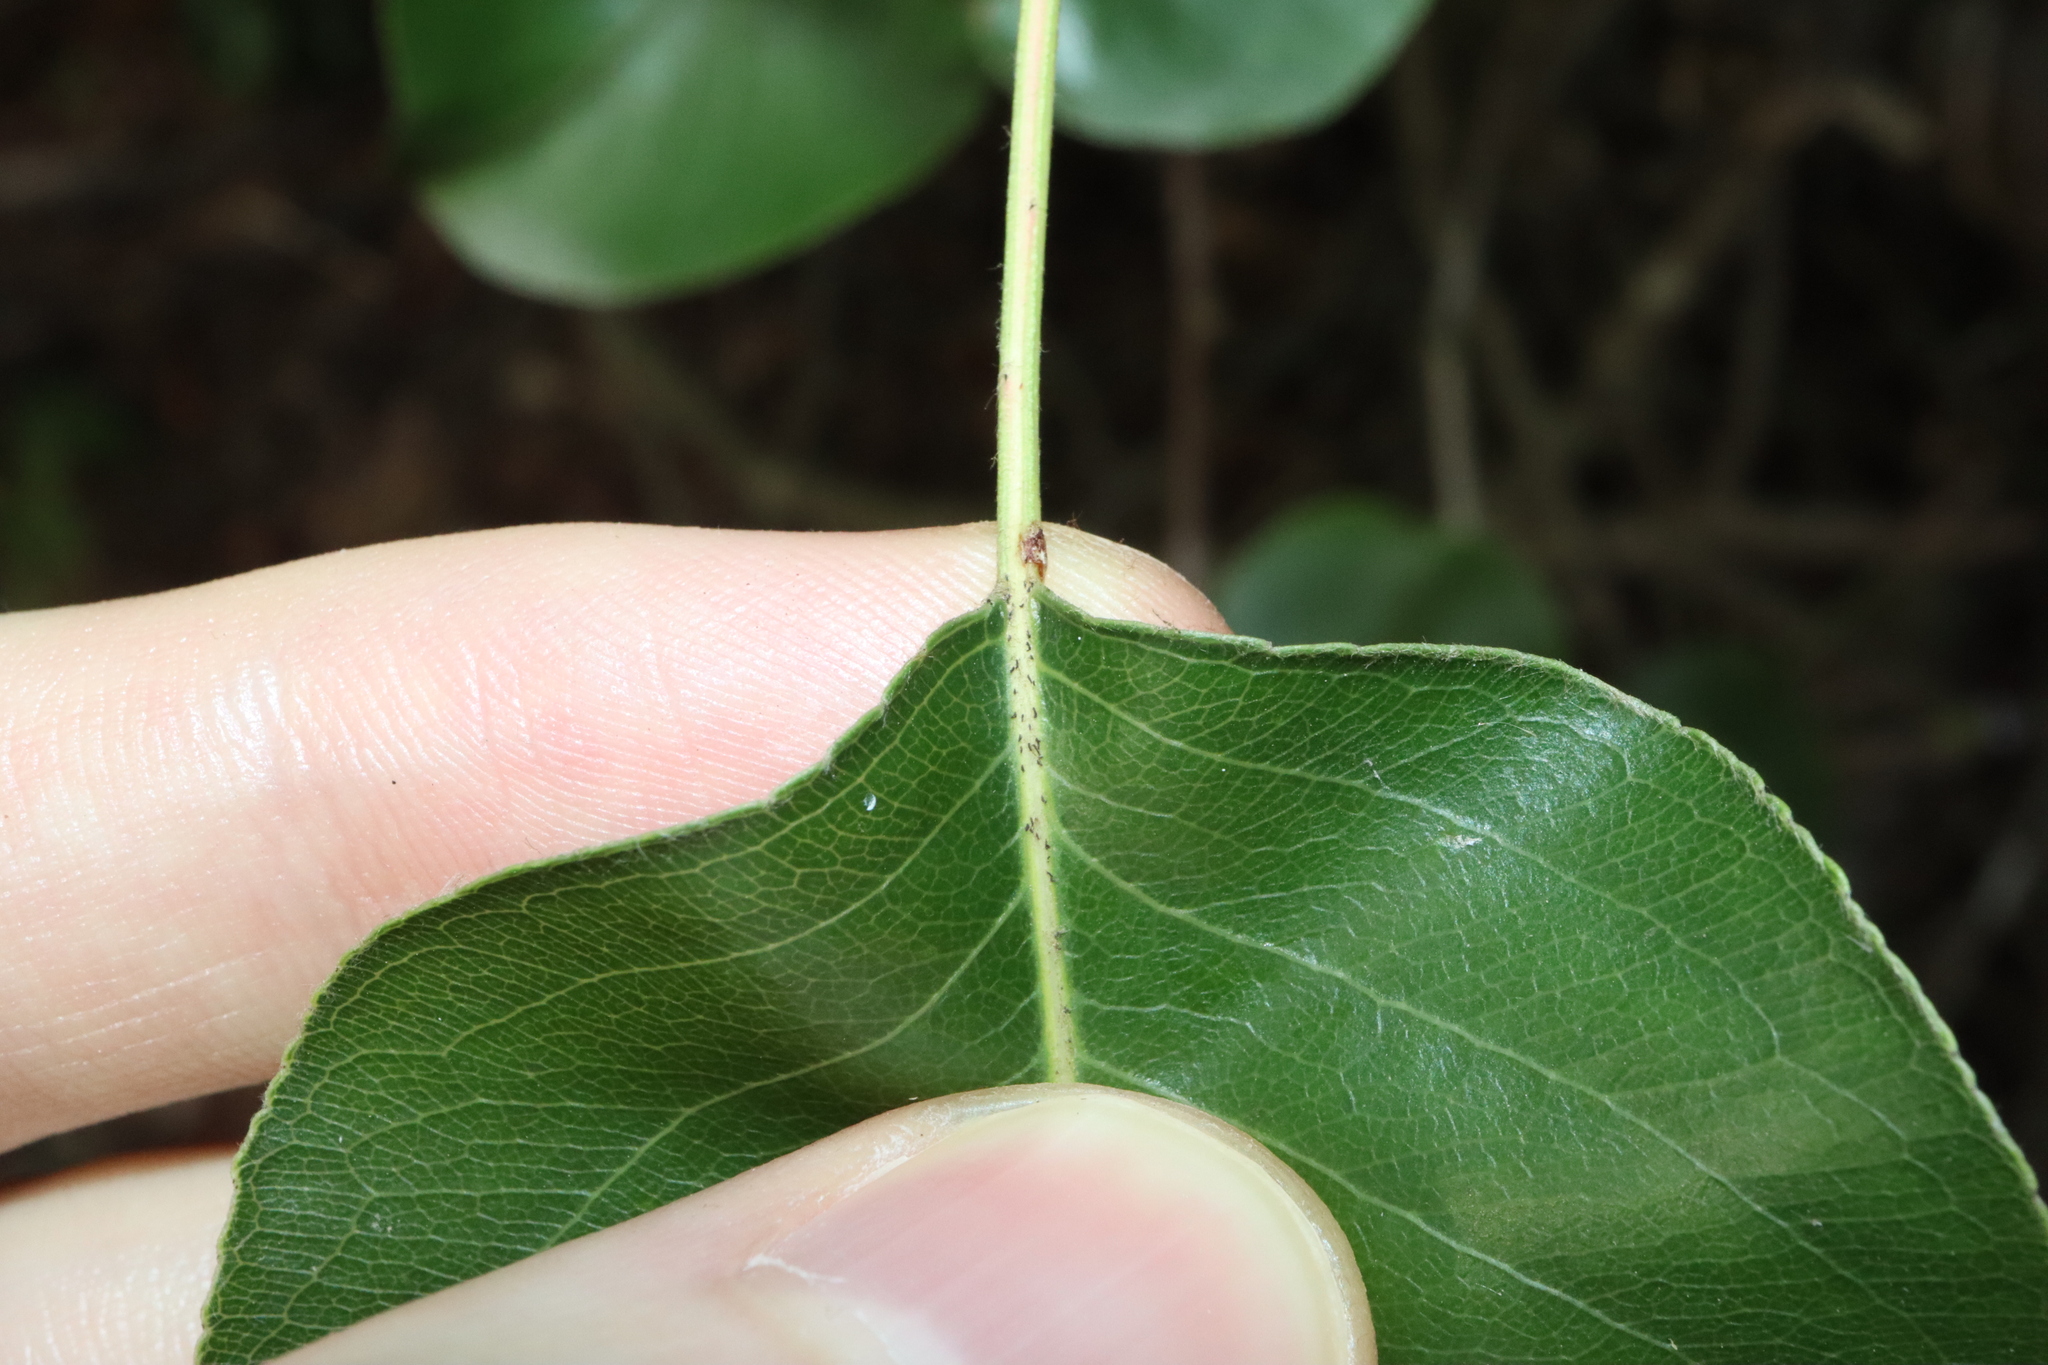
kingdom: Plantae
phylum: Tracheophyta
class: Magnoliopsida
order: Rosales
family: Rosaceae
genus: Pyrus
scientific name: Pyrus calleryana
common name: Callery pear
